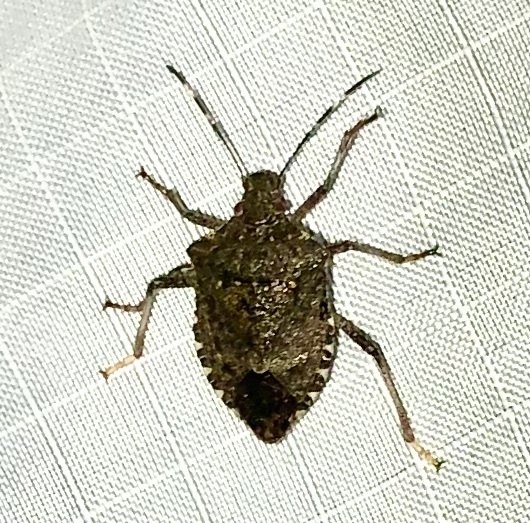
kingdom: Animalia
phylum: Arthropoda
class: Insecta
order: Hemiptera
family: Pentatomidae
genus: Halyomorpha
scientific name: Halyomorpha halys
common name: Brown marmorated stink bug
